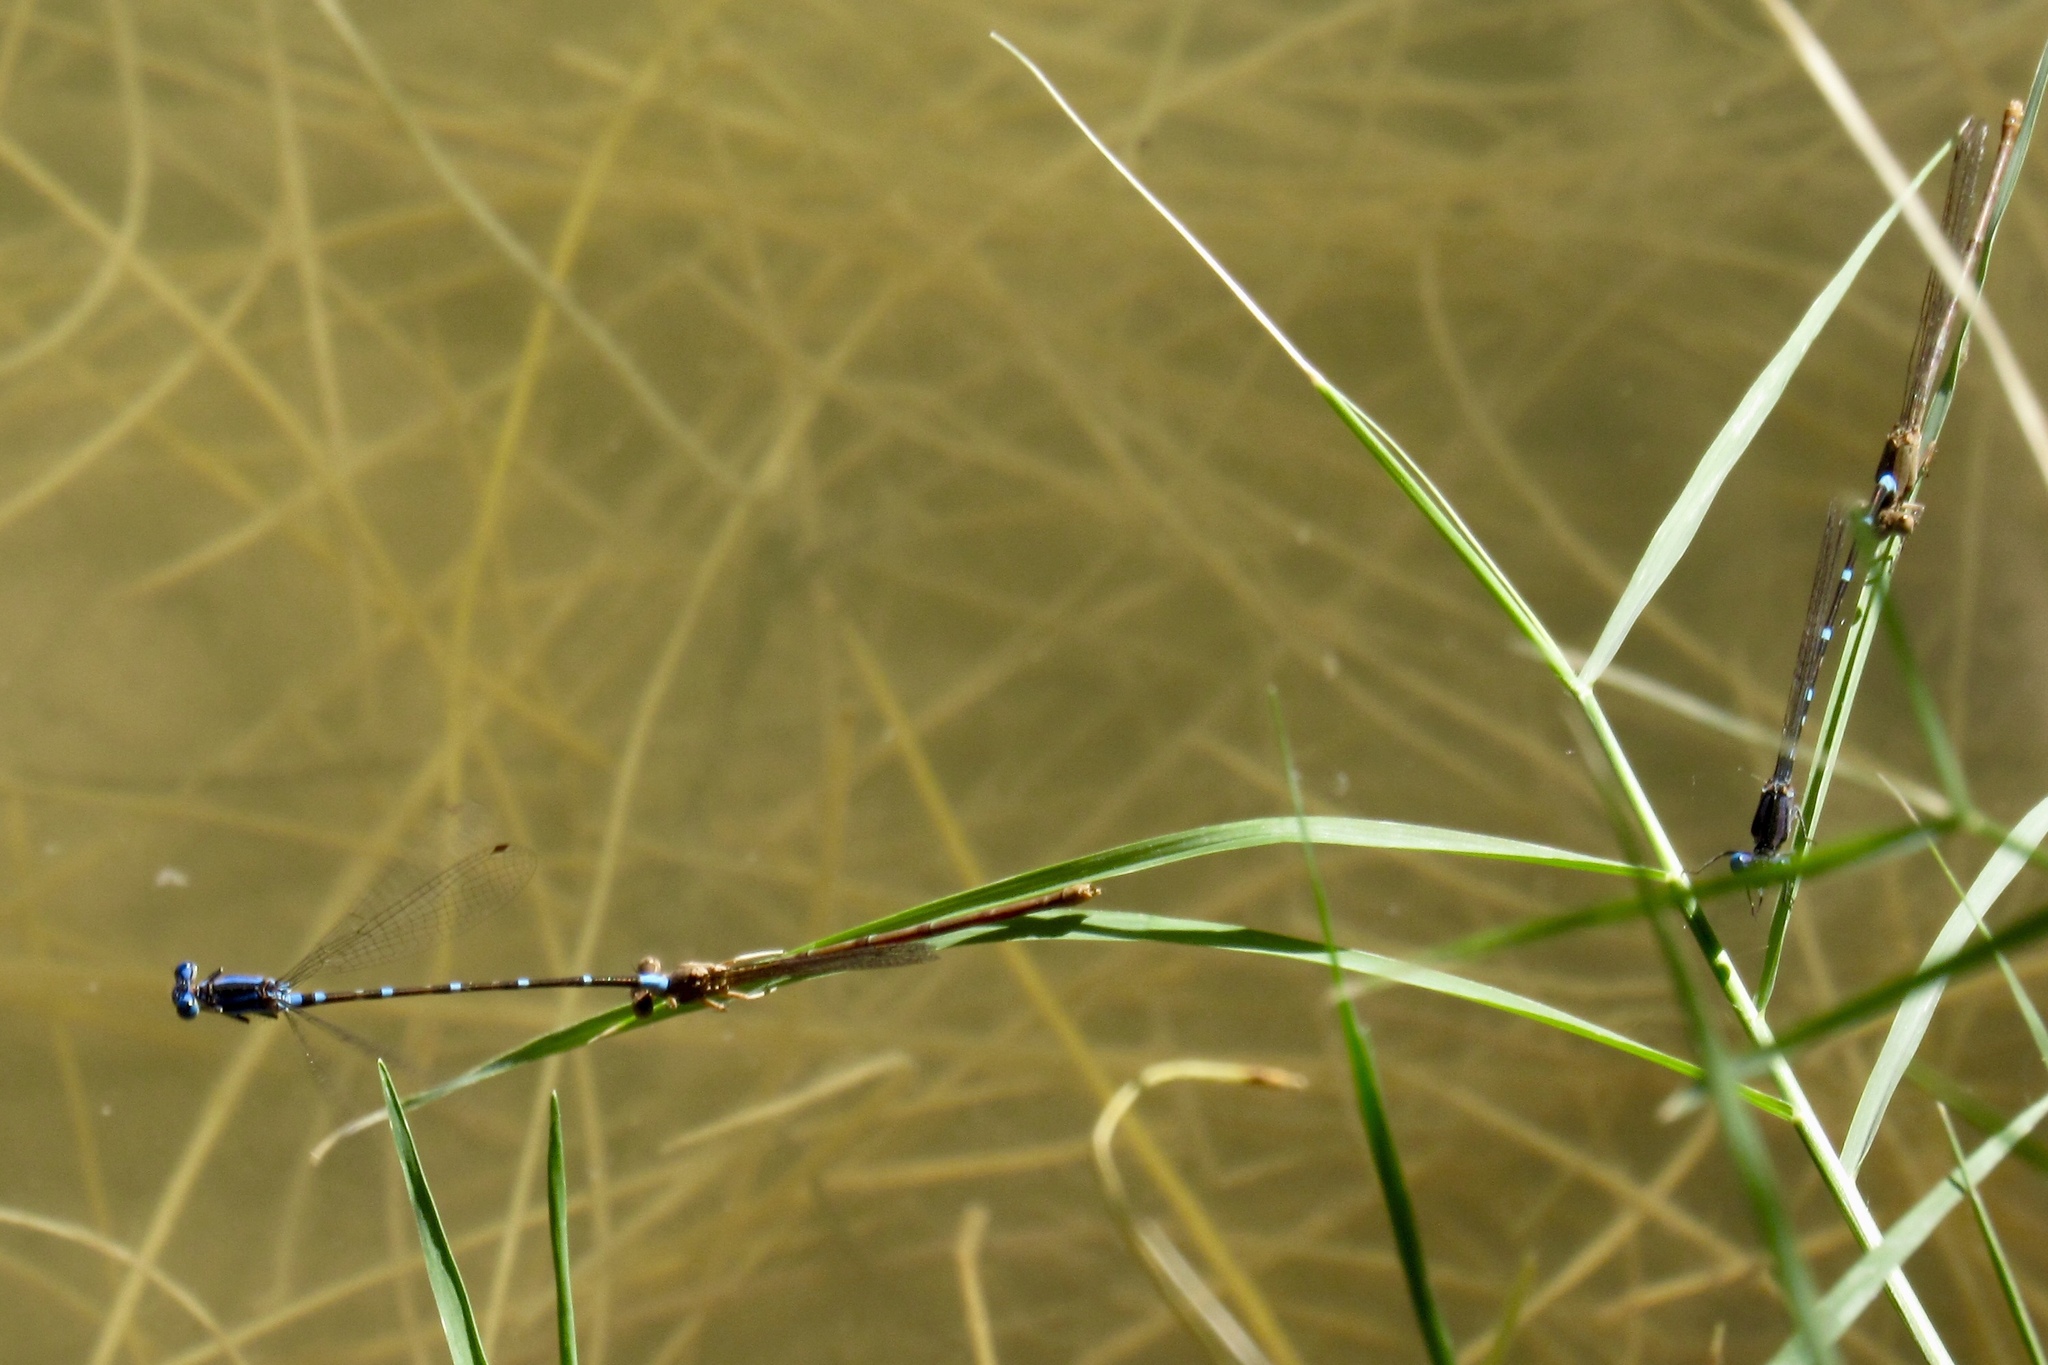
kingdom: Animalia
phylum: Arthropoda
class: Insecta
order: Odonata
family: Coenagrionidae
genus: Argia
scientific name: Argia sedula
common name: Blue-ringed dancer
